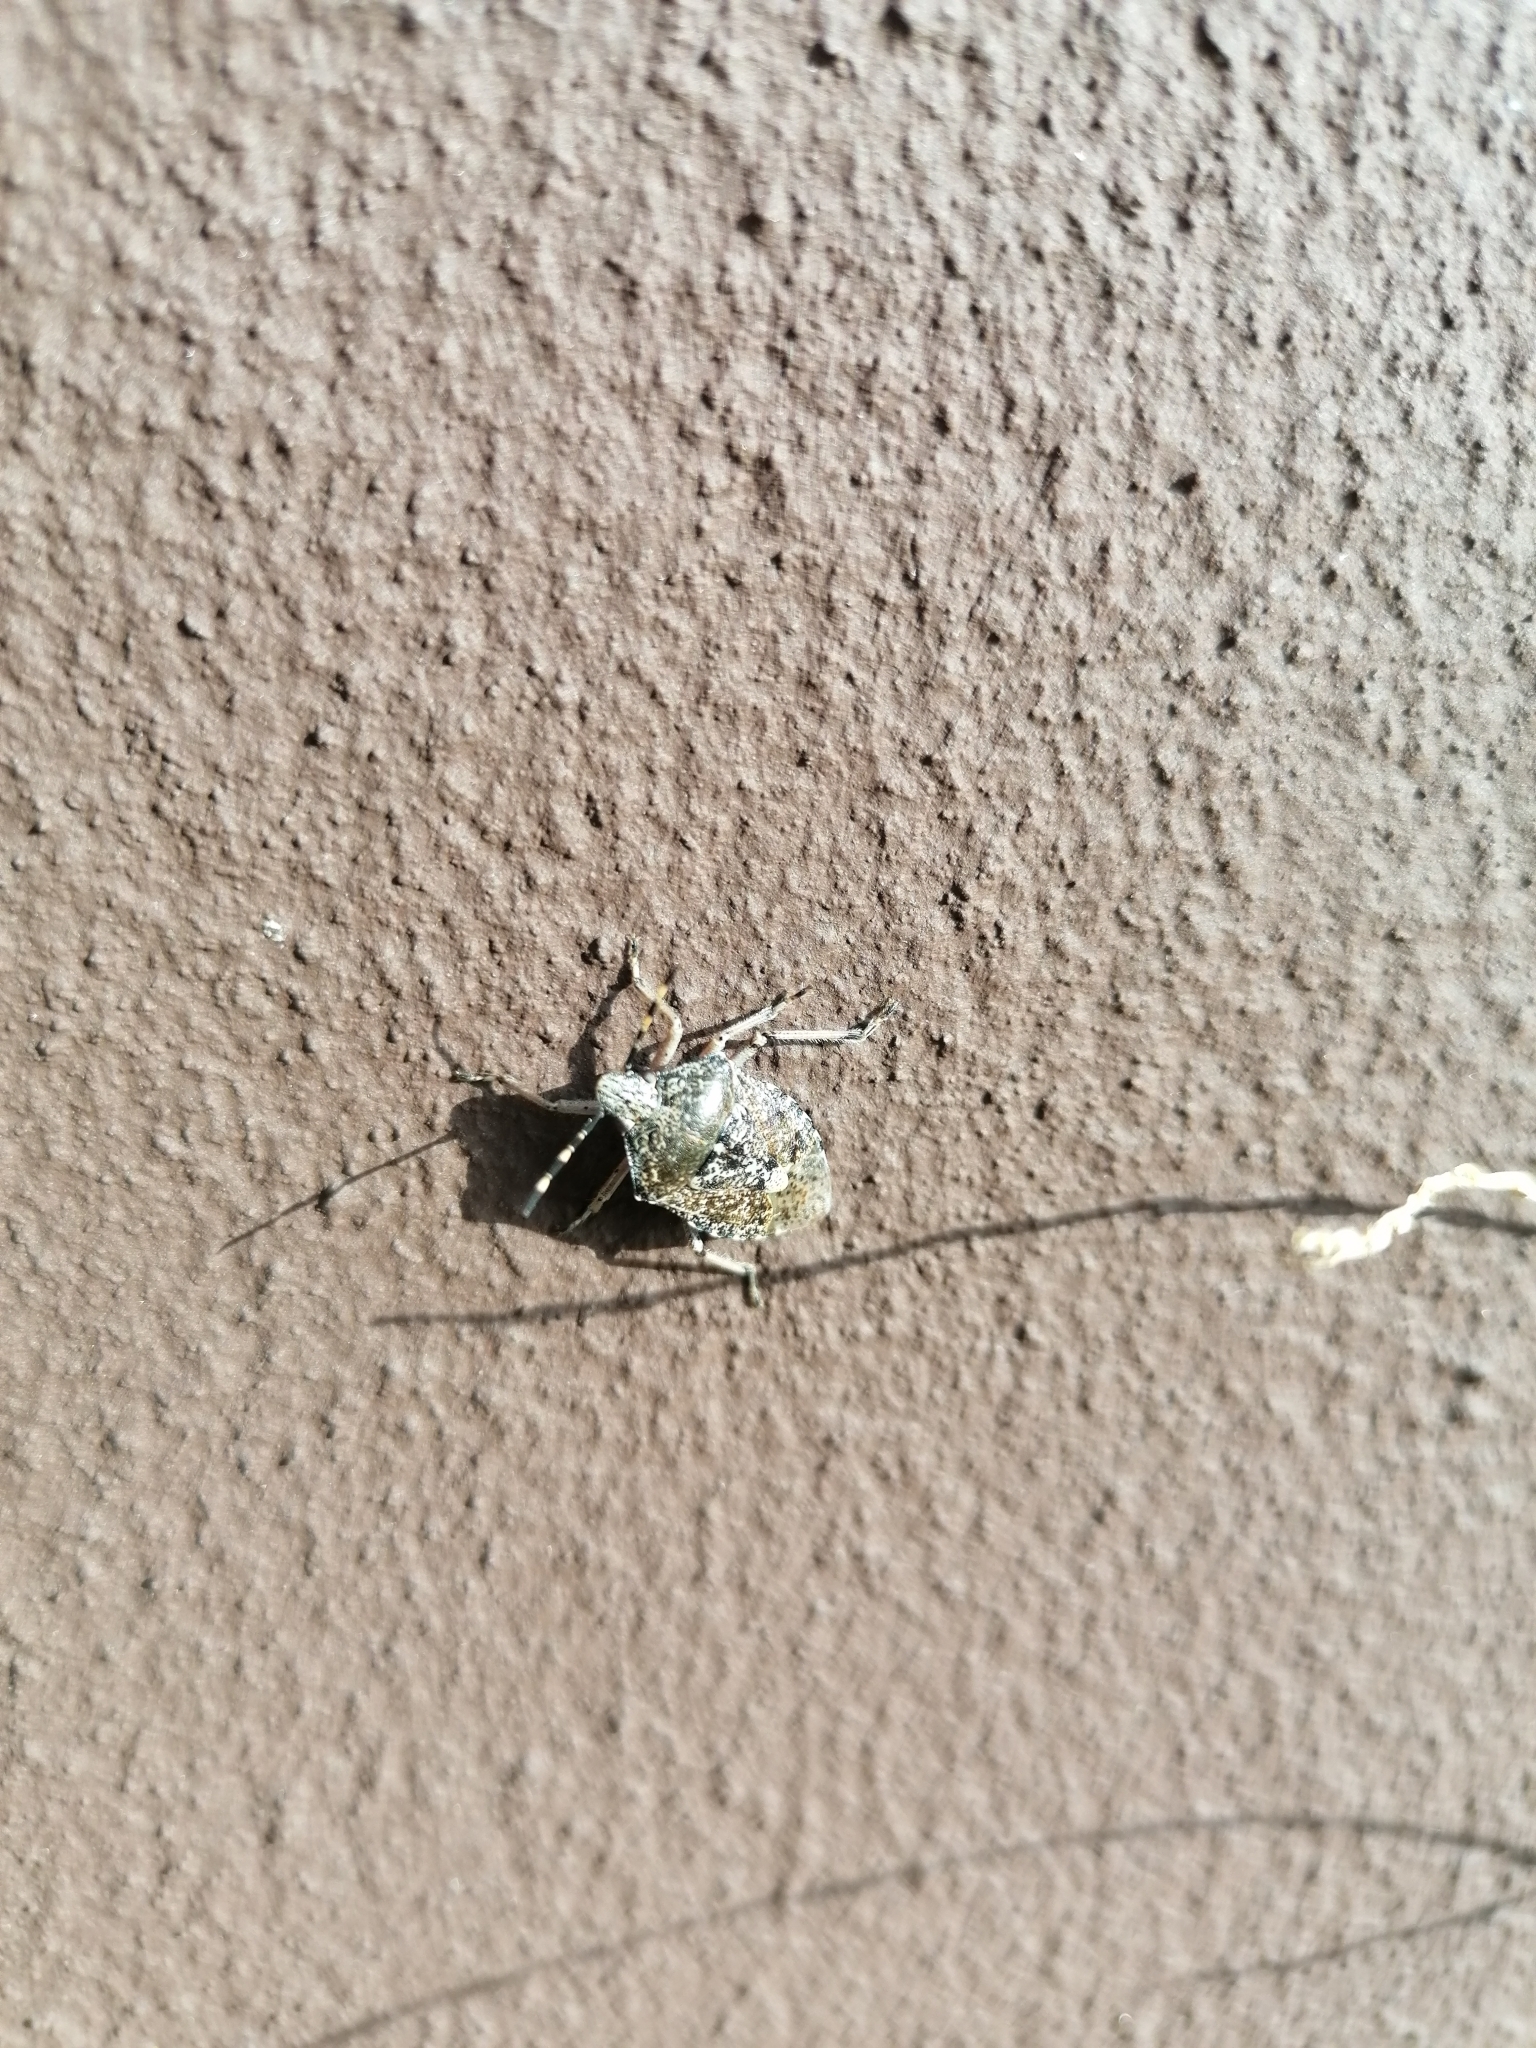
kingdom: Animalia
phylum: Arthropoda
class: Insecta
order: Hemiptera
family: Pentatomidae
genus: Rhaphigaster
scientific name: Rhaphigaster nebulosa
